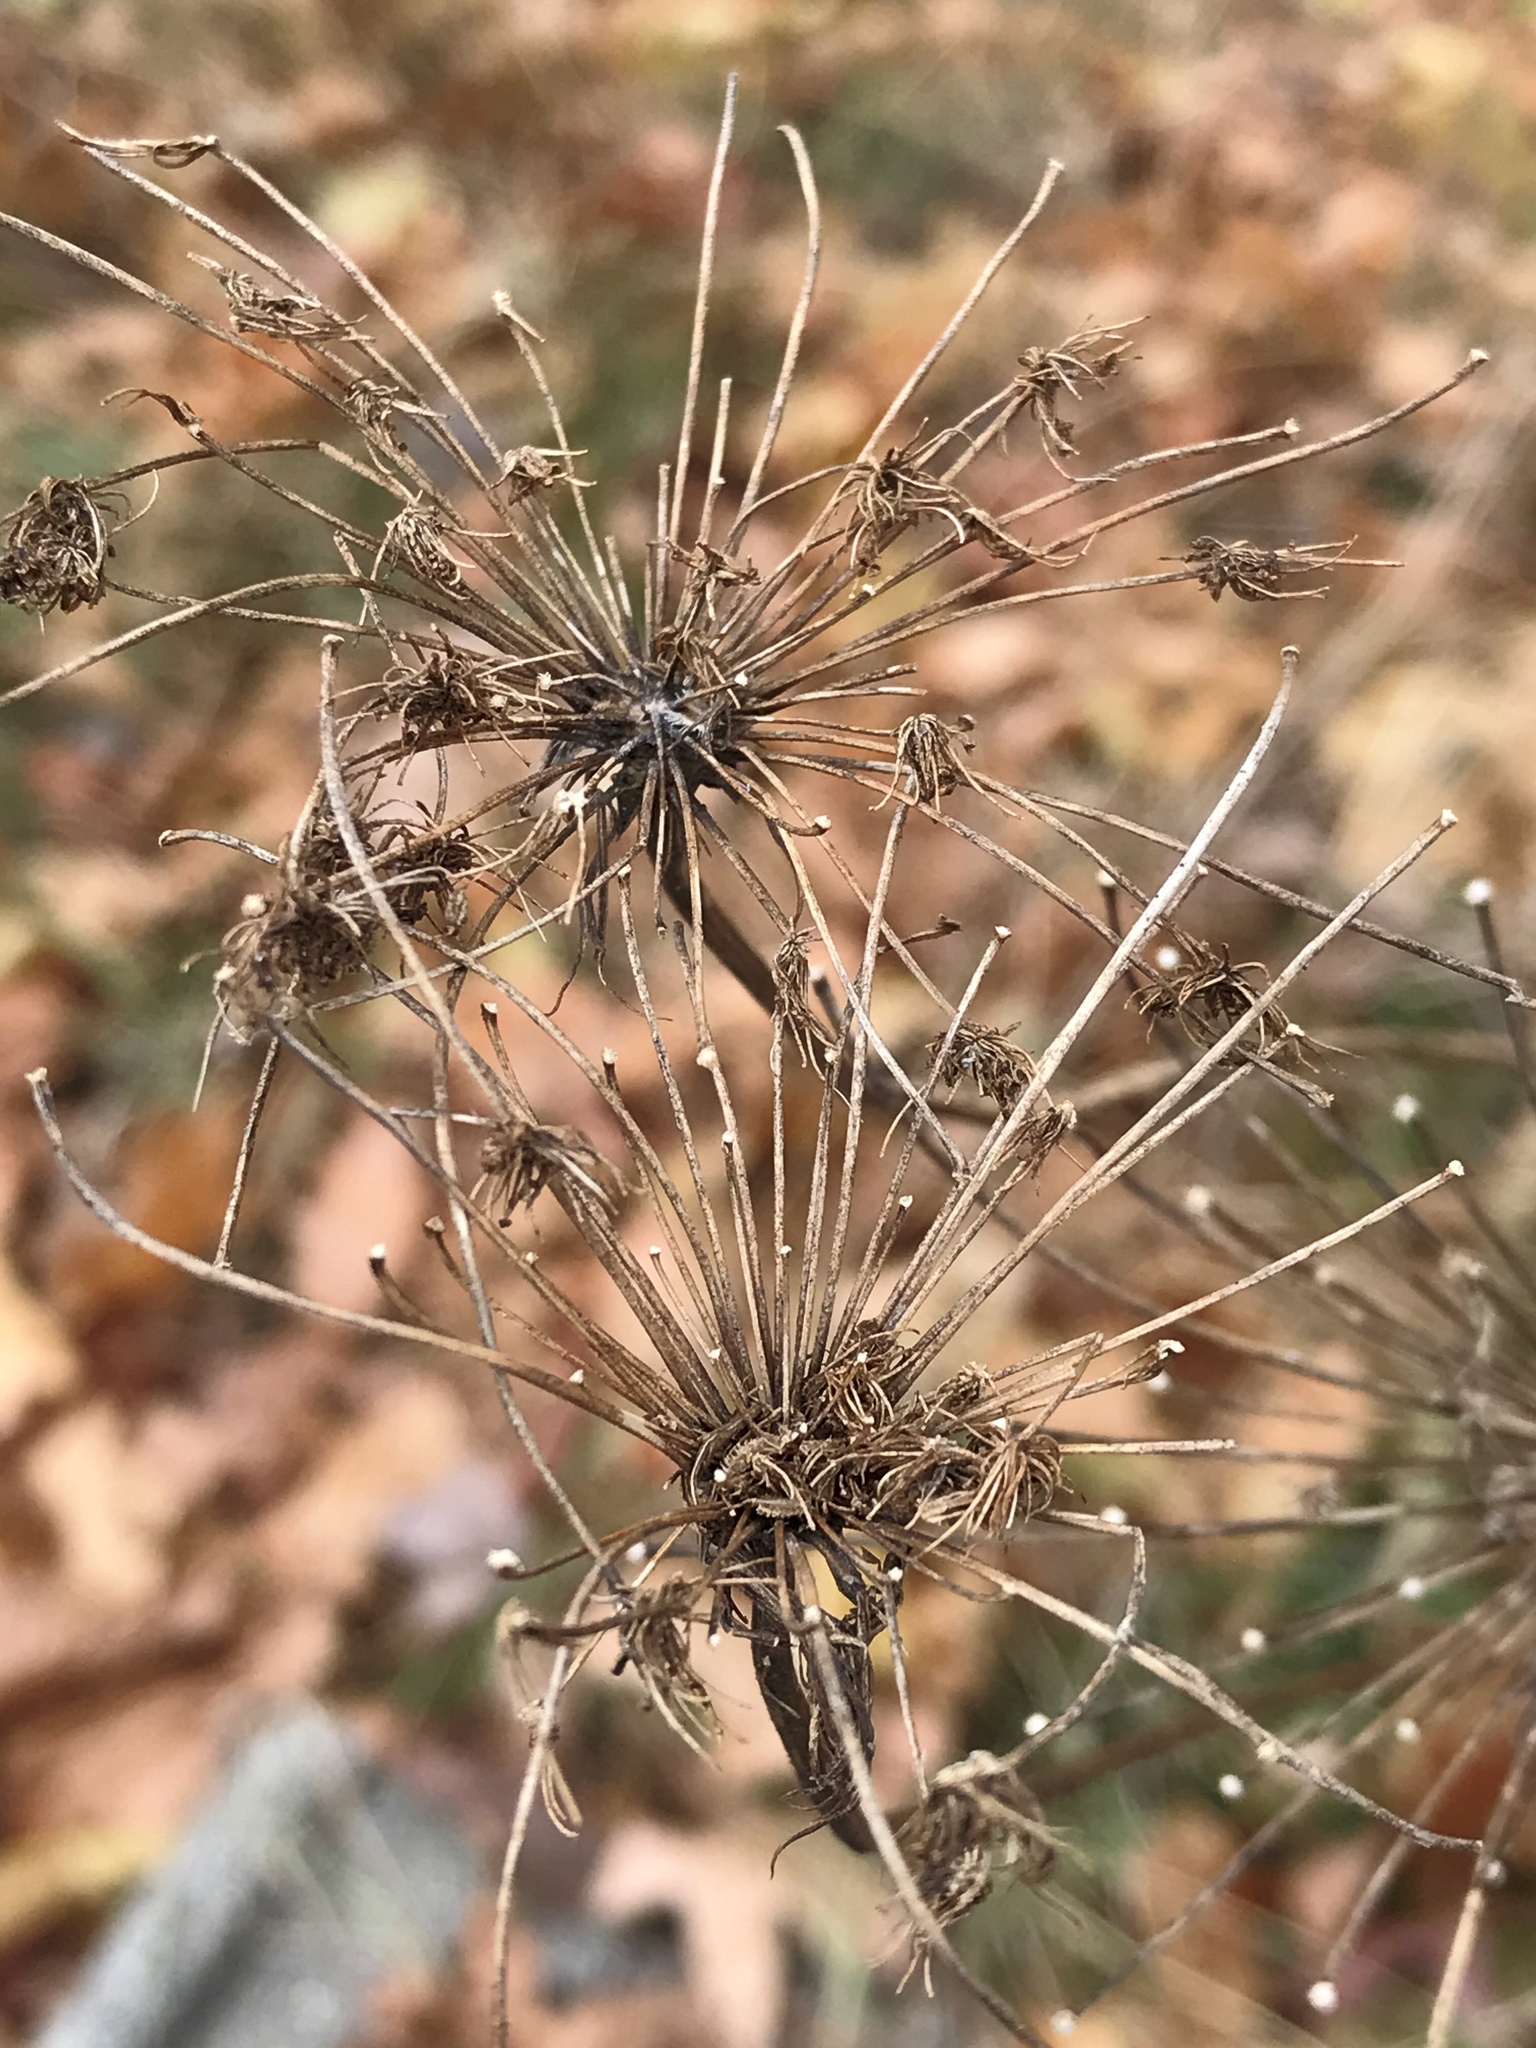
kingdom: Plantae
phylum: Tracheophyta
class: Magnoliopsida
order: Apiales
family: Apiaceae
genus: Daucus
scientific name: Daucus carota
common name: Wild carrot
